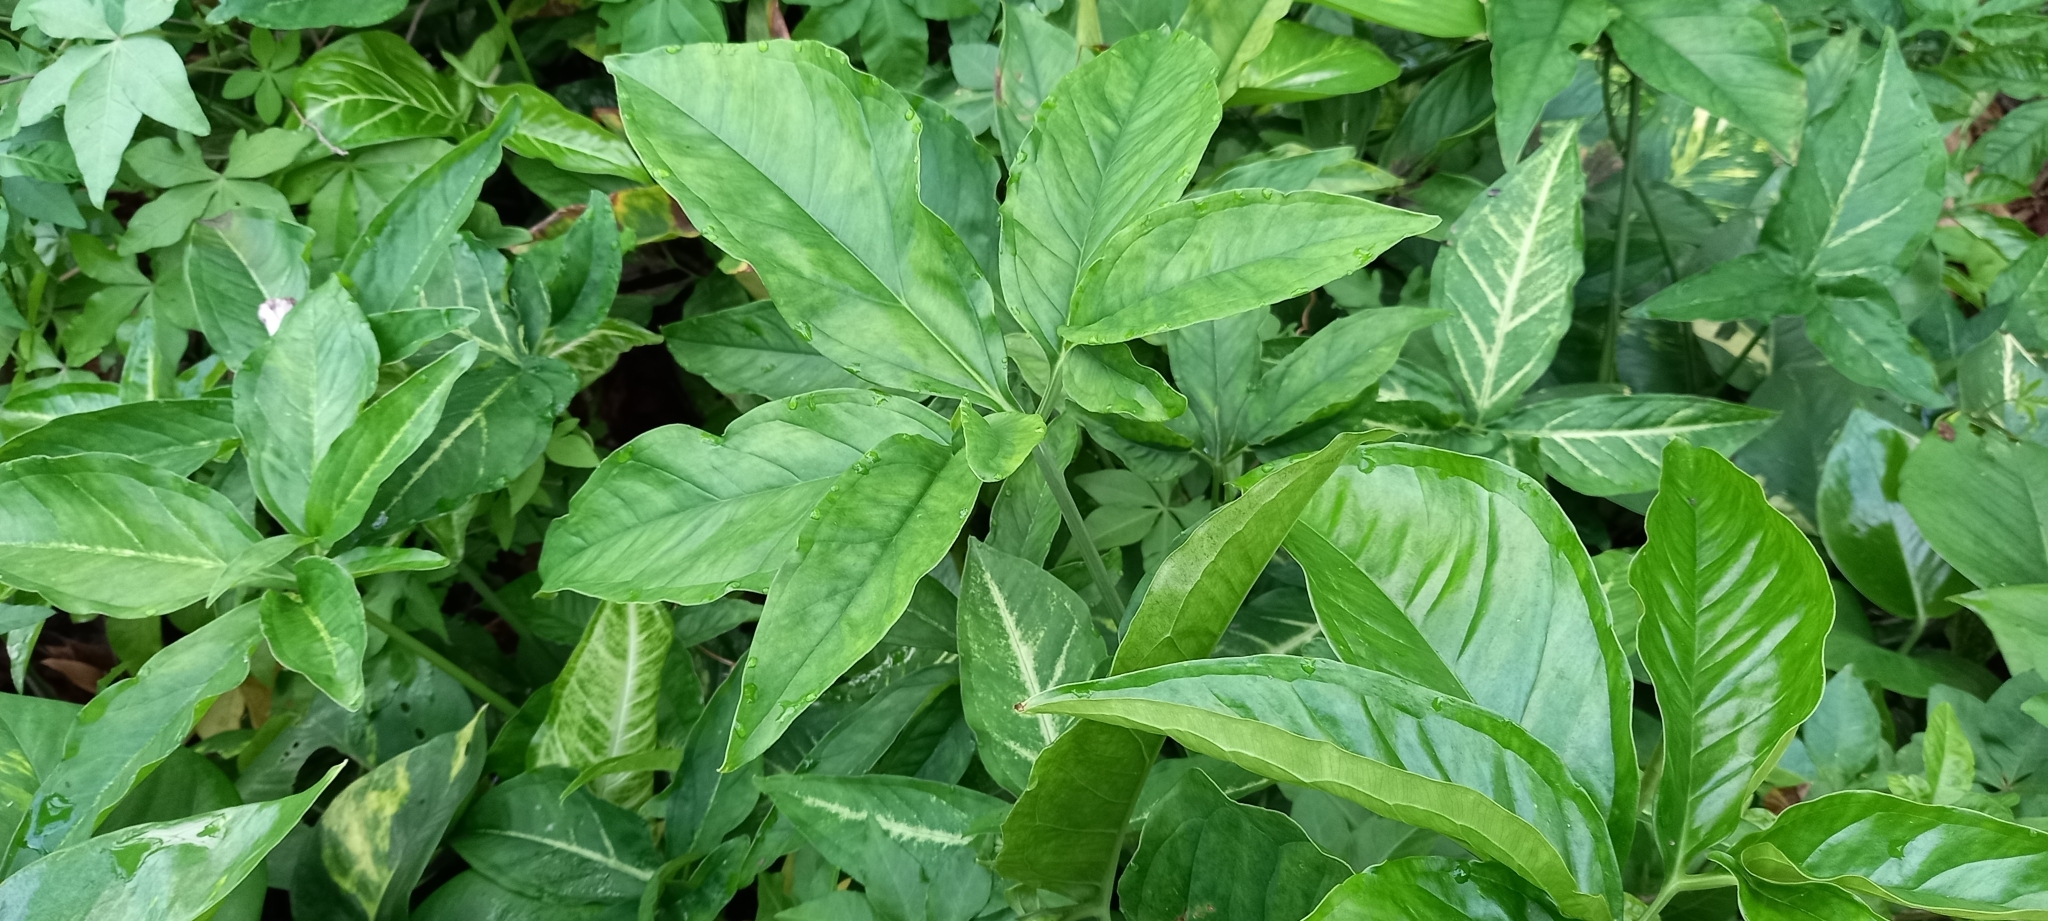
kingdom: Plantae
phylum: Tracheophyta
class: Liliopsida
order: Alismatales
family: Araceae
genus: Syngonium
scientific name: Syngonium angustatum
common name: Fivefingers
